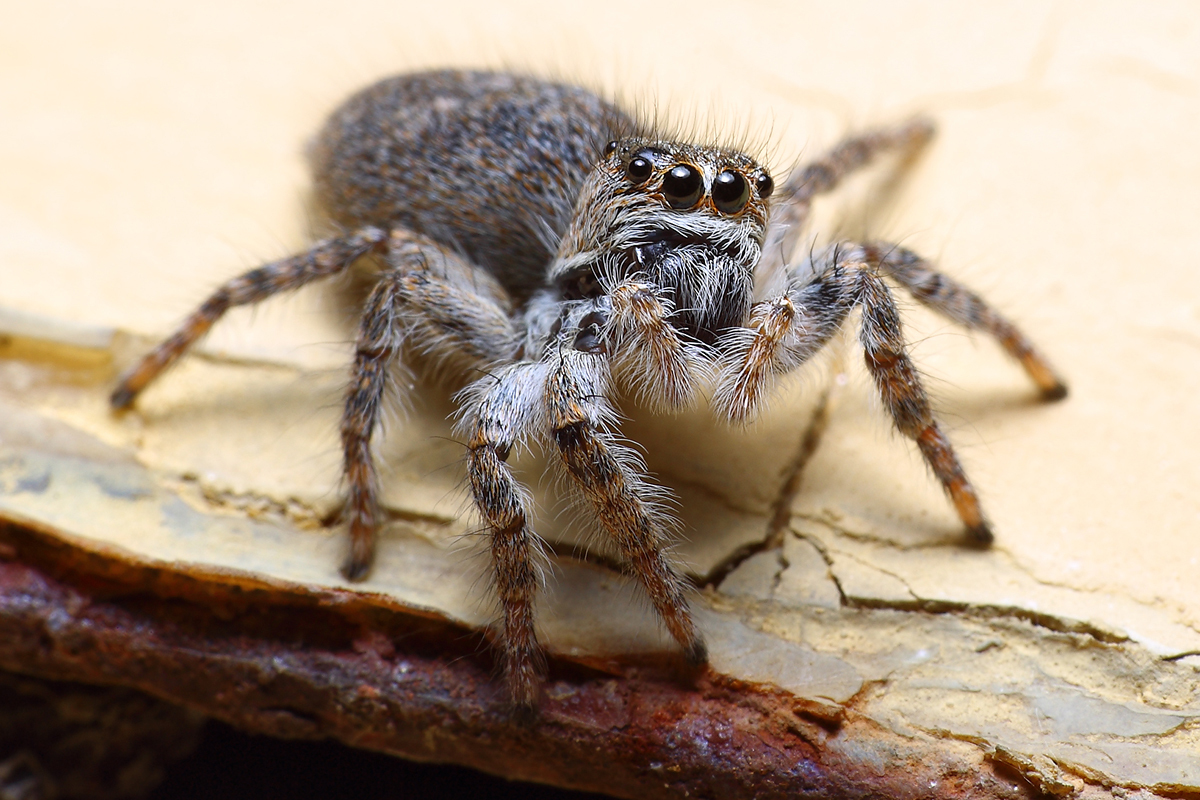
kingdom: Animalia
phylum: Arthropoda
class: Arachnida
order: Araneae
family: Salticidae
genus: Philaeus
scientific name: Philaeus chrysops
